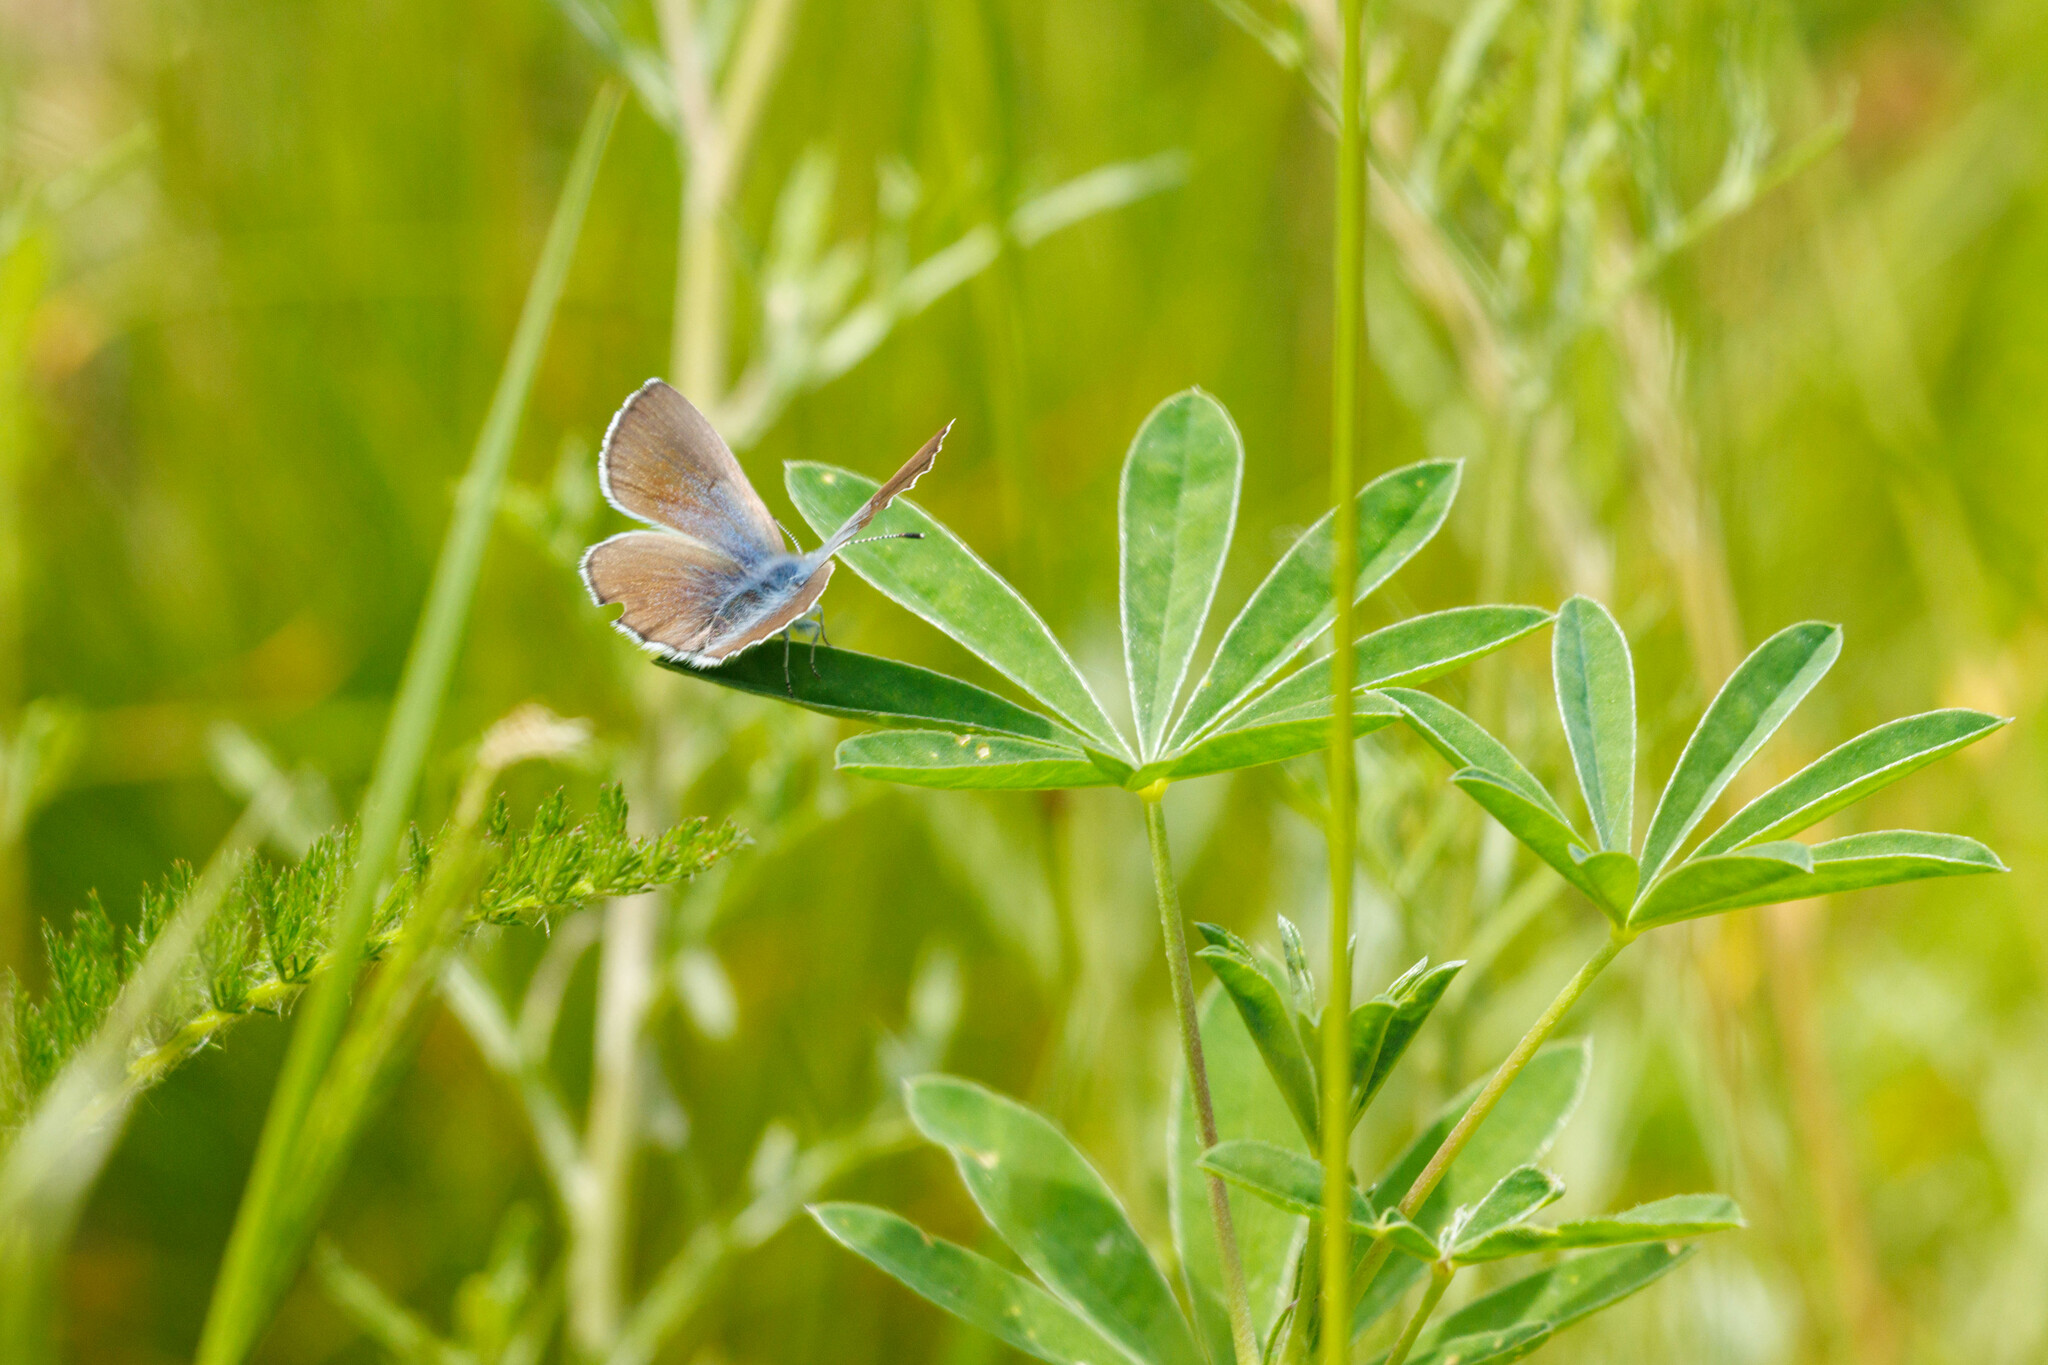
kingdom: Animalia
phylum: Arthropoda
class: Insecta
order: Lepidoptera
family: Lycaenidae
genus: Glaucopsyche
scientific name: Glaucopsyche lygdamus
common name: Silvery blue
